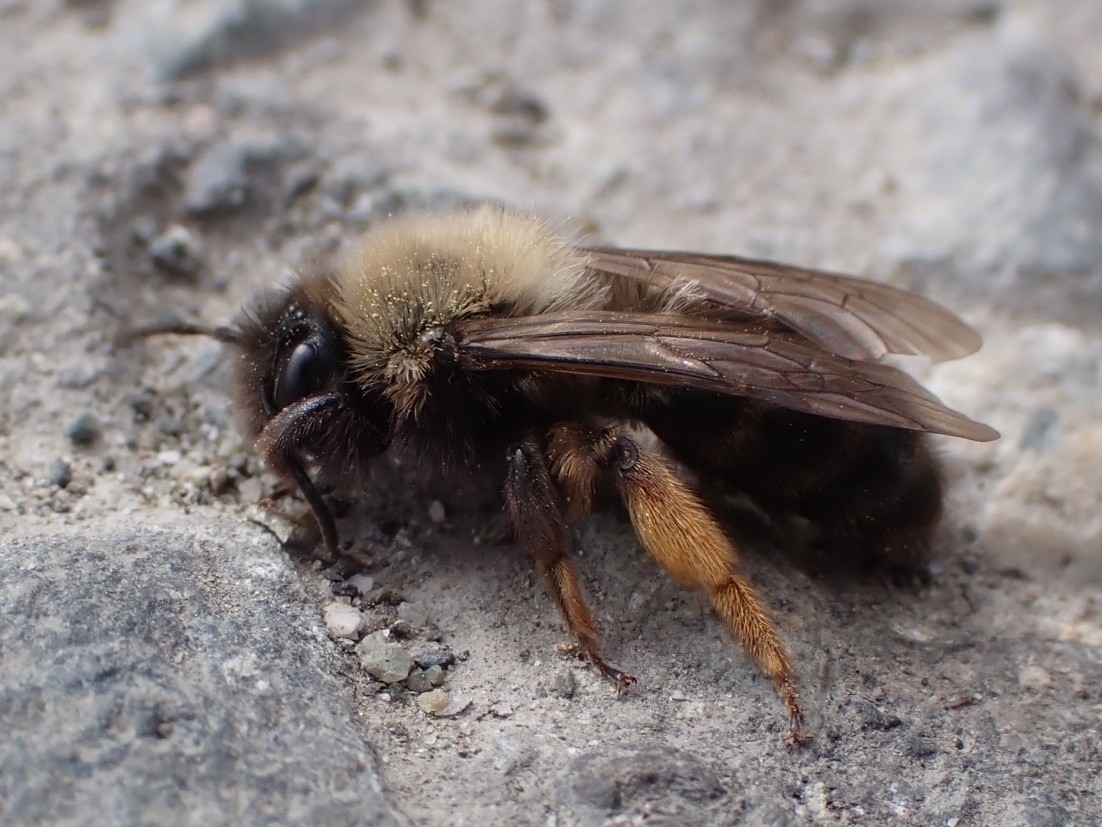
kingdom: Animalia
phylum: Arthropoda
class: Insecta
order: Hymenoptera
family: Andrenidae
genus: Andrena
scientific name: Andrena clarkella
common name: Clarke's mining bee
